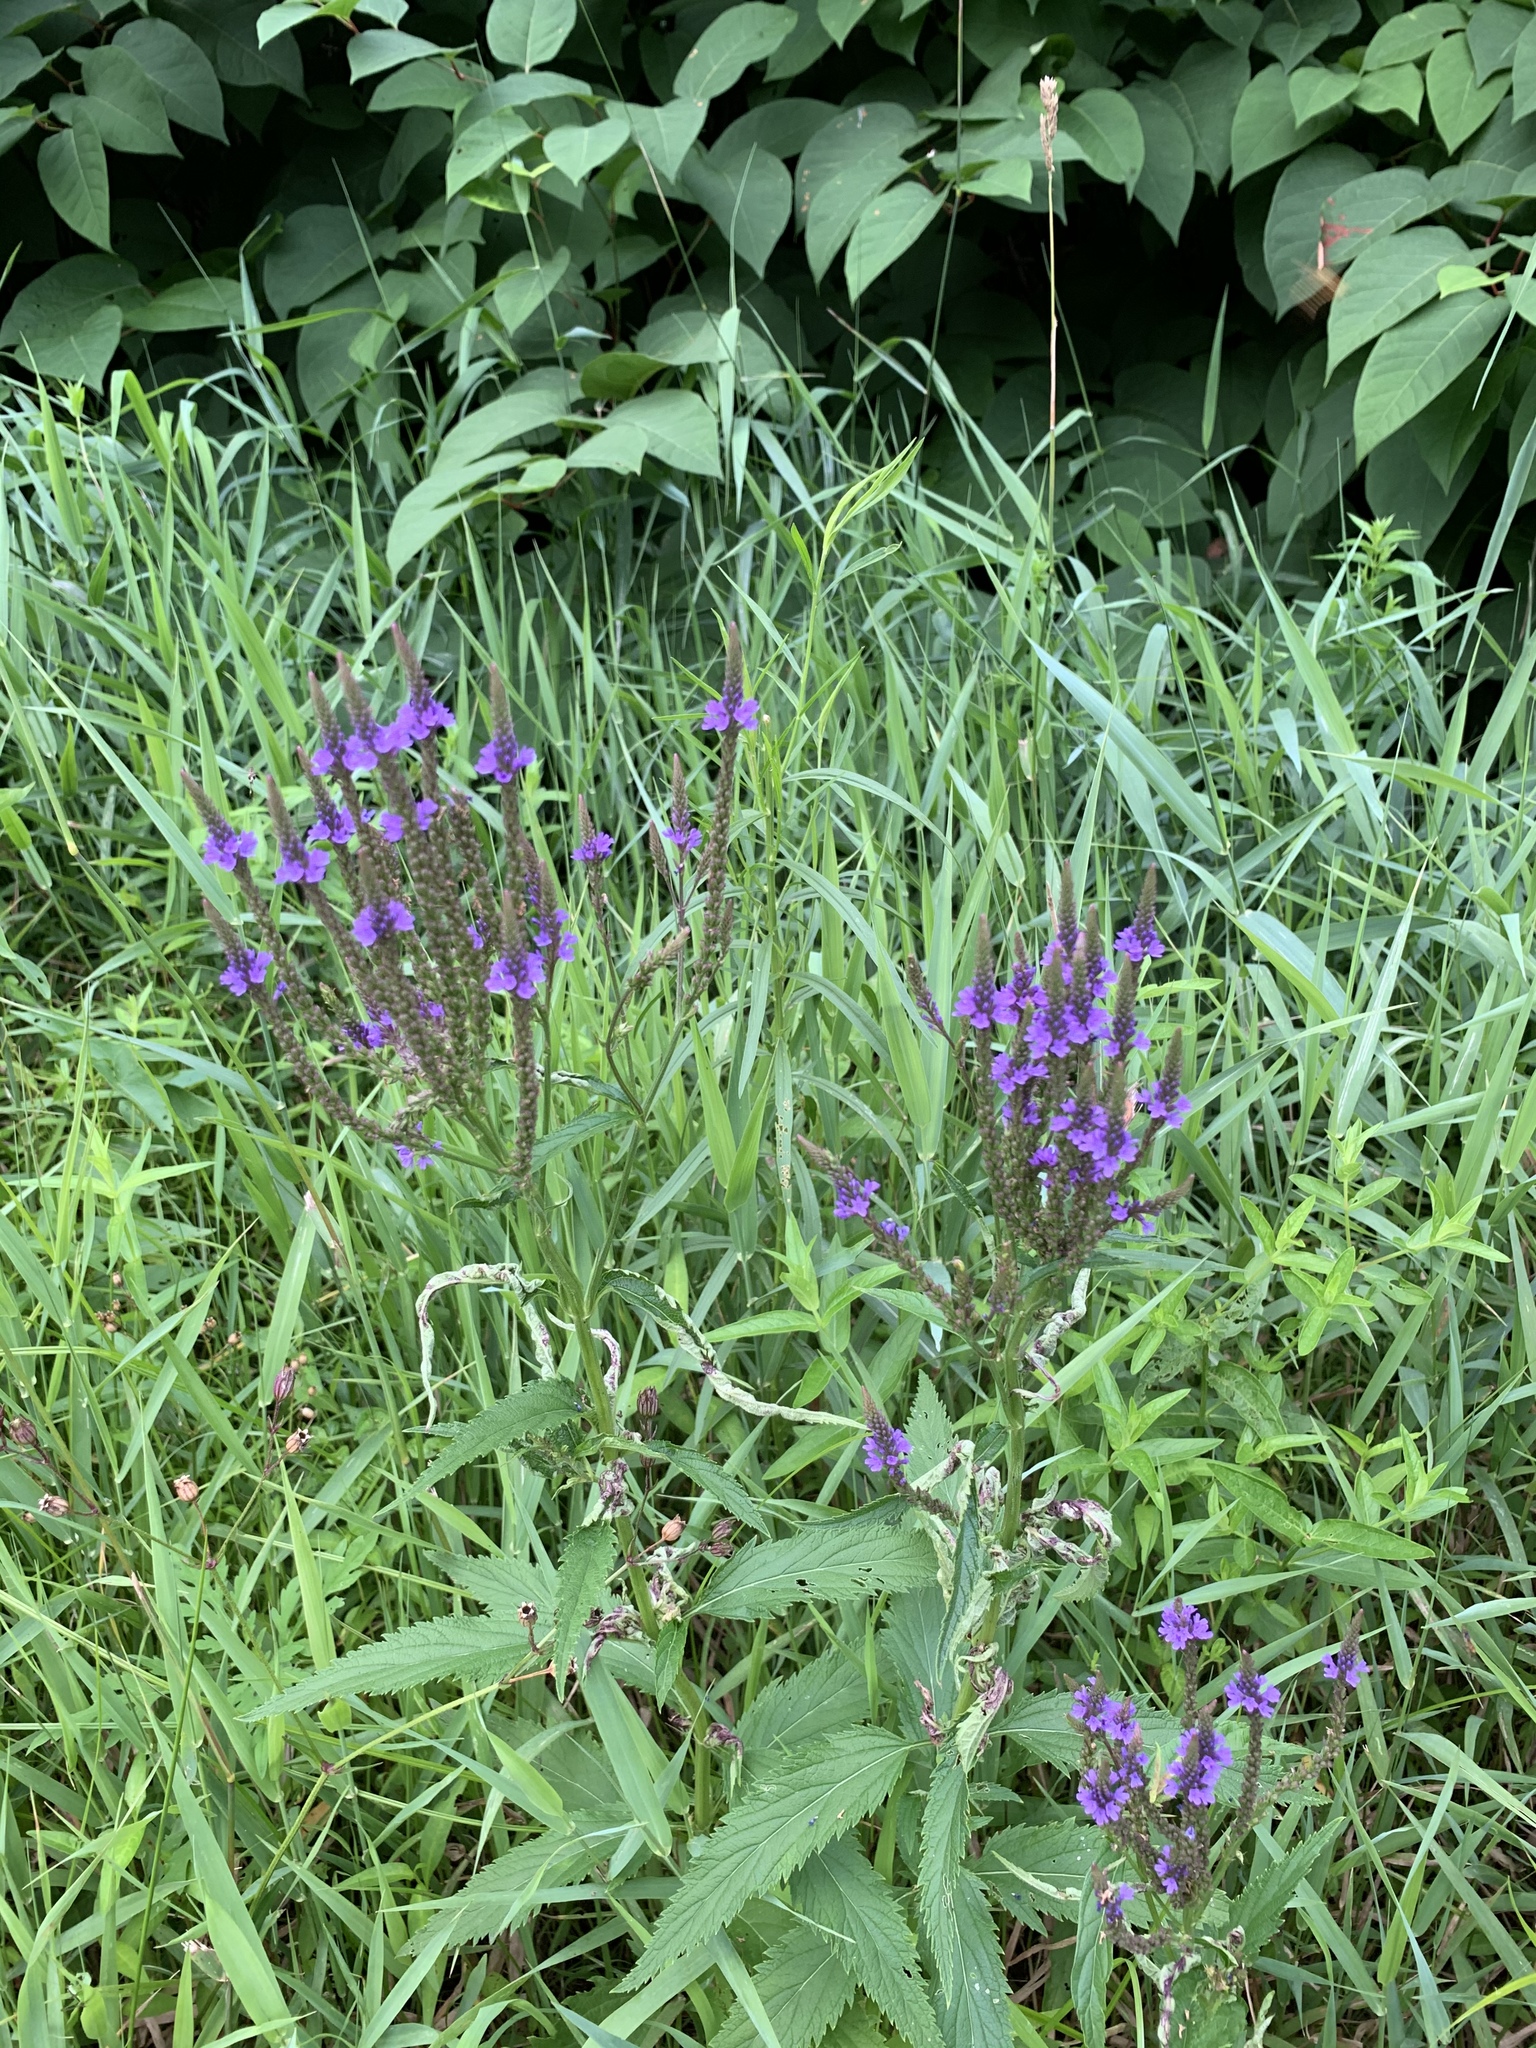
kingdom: Plantae
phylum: Tracheophyta
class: Magnoliopsida
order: Lamiales
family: Verbenaceae
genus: Verbena
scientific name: Verbena hastata
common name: American blue vervain
